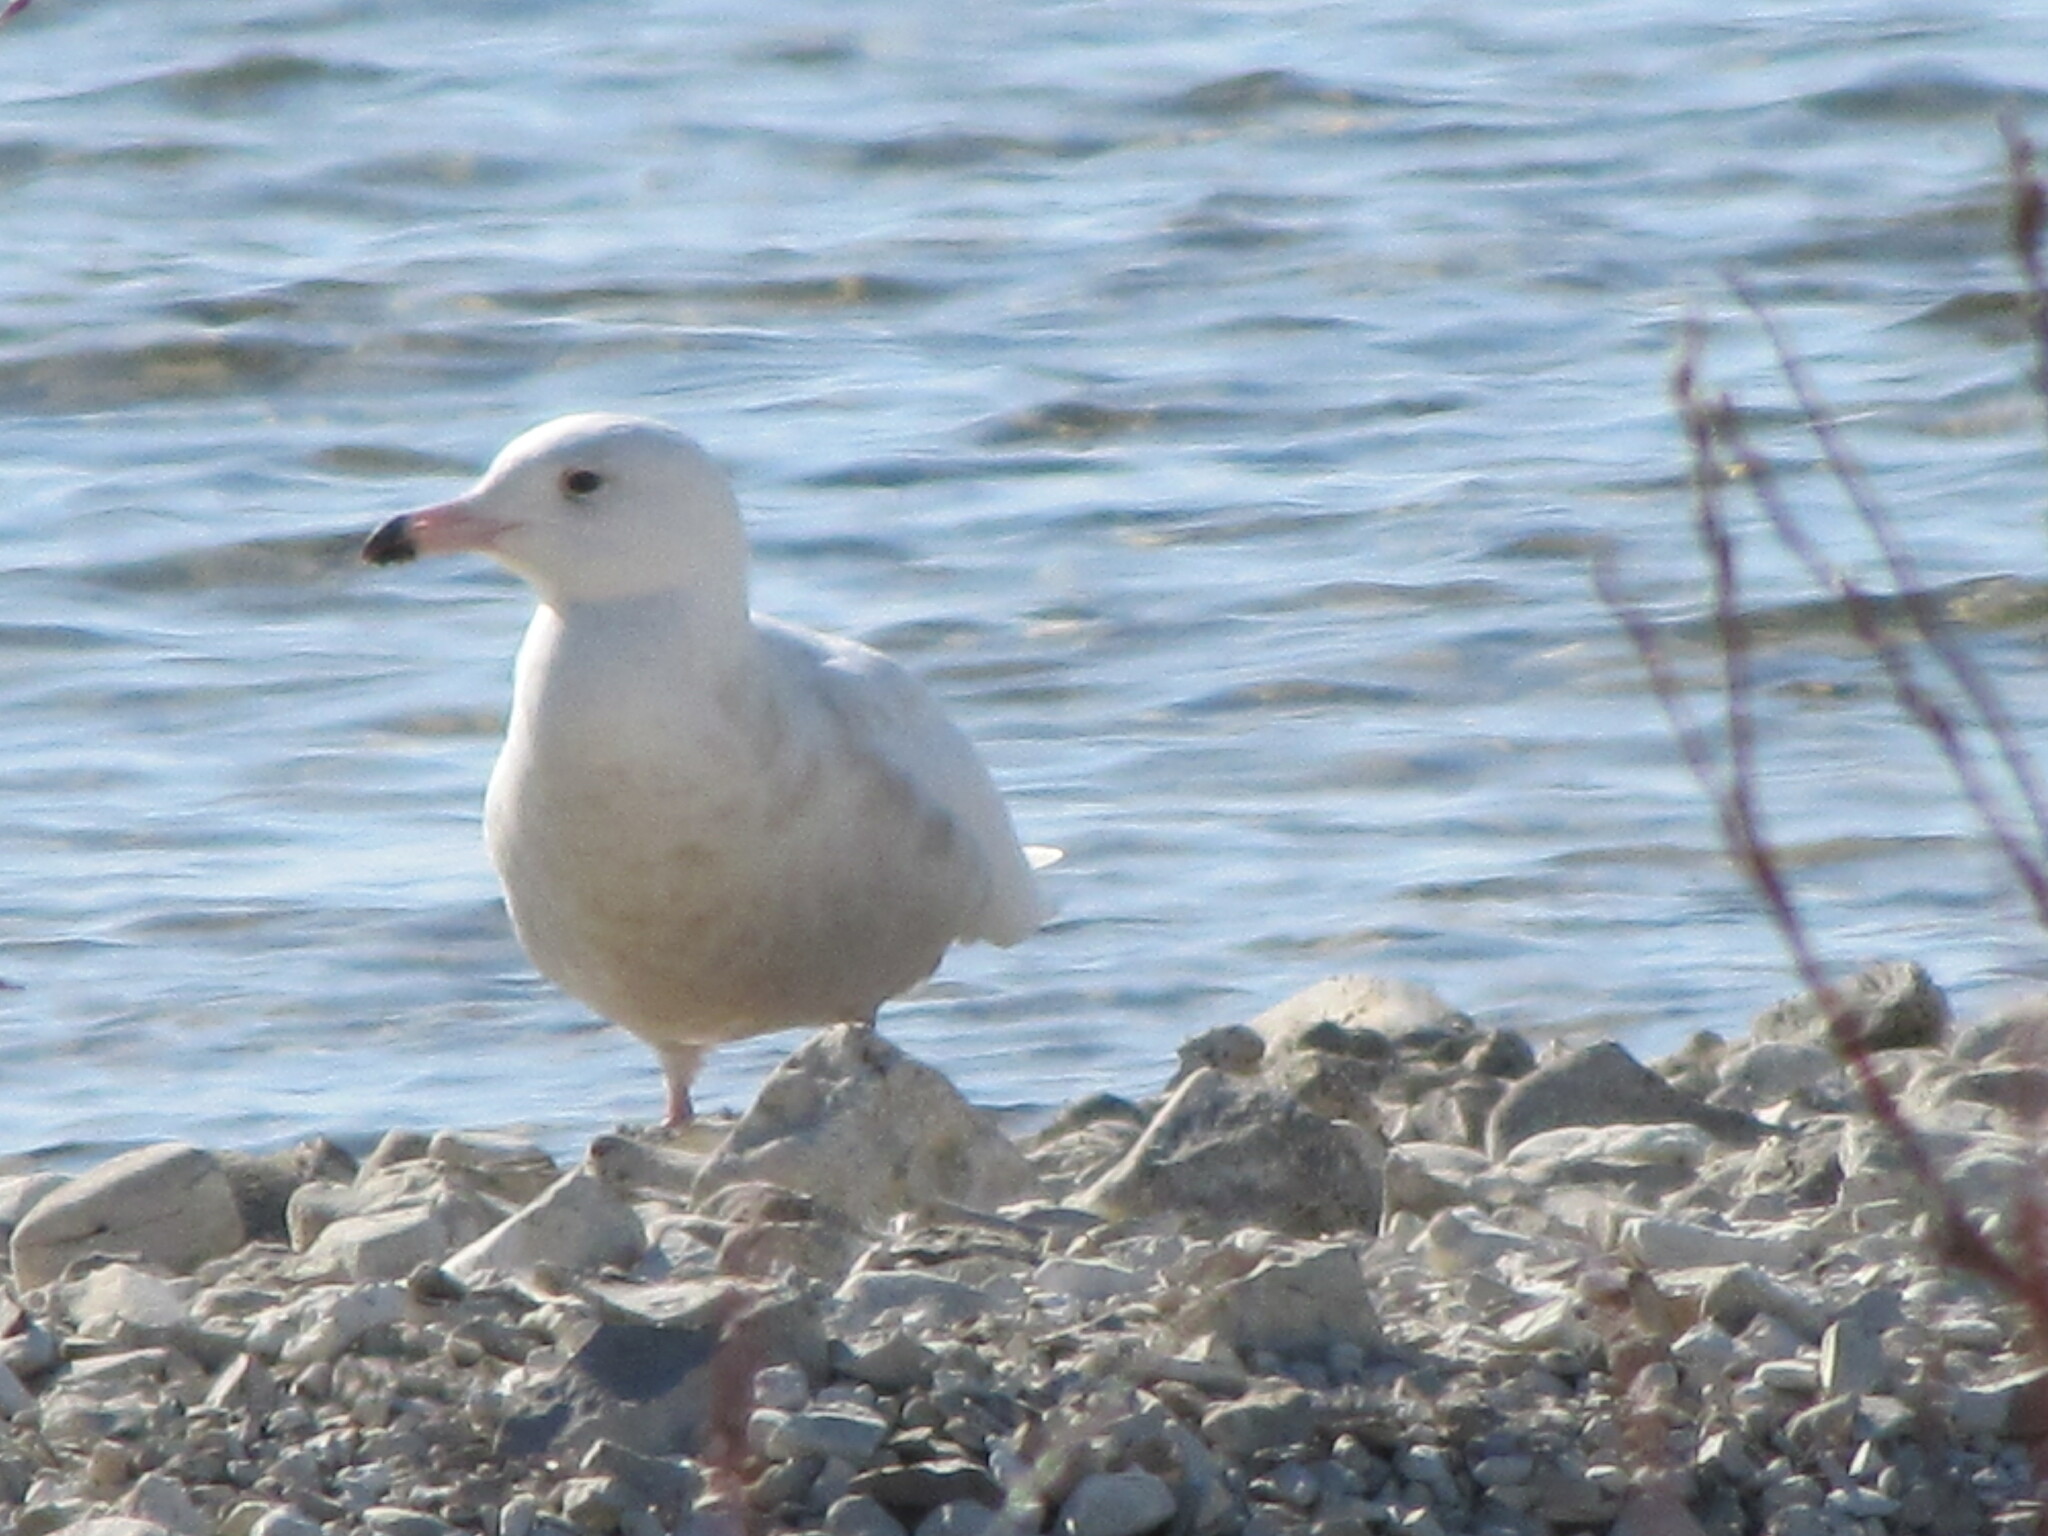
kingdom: Animalia
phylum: Chordata
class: Aves
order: Charadriiformes
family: Laridae
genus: Larus
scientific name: Larus hyperboreus
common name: Glaucous gull
